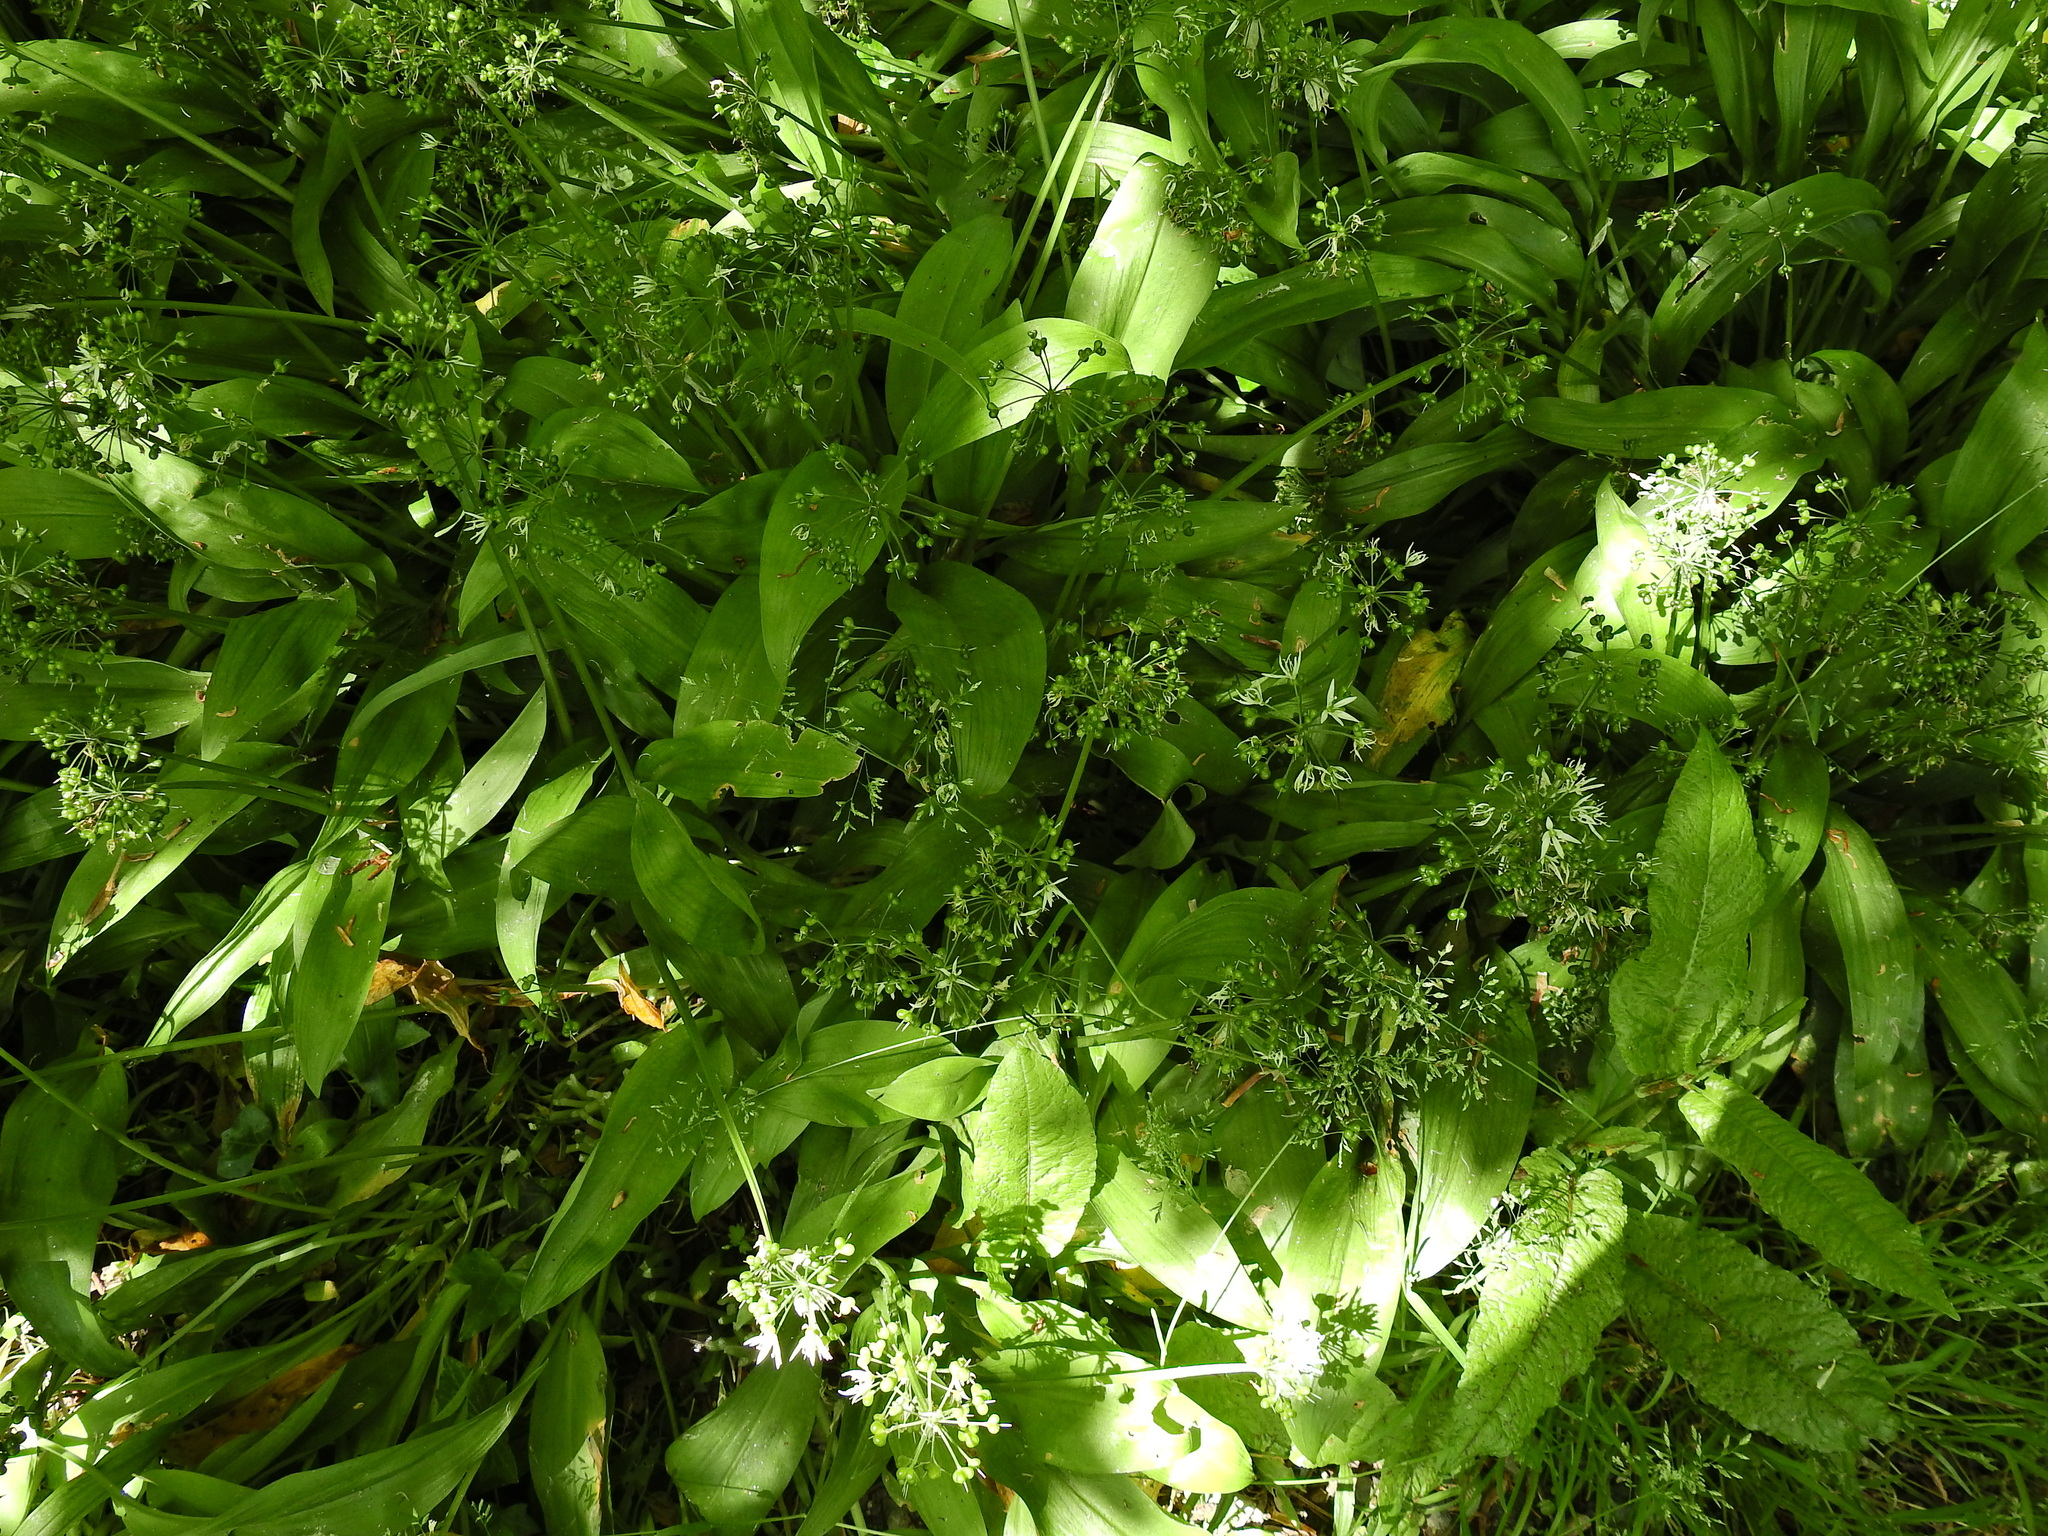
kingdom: Plantae
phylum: Tracheophyta
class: Liliopsida
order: Asparagales
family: Amaryllidaceae
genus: Allium
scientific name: Allium ursinum
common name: Ramsons
